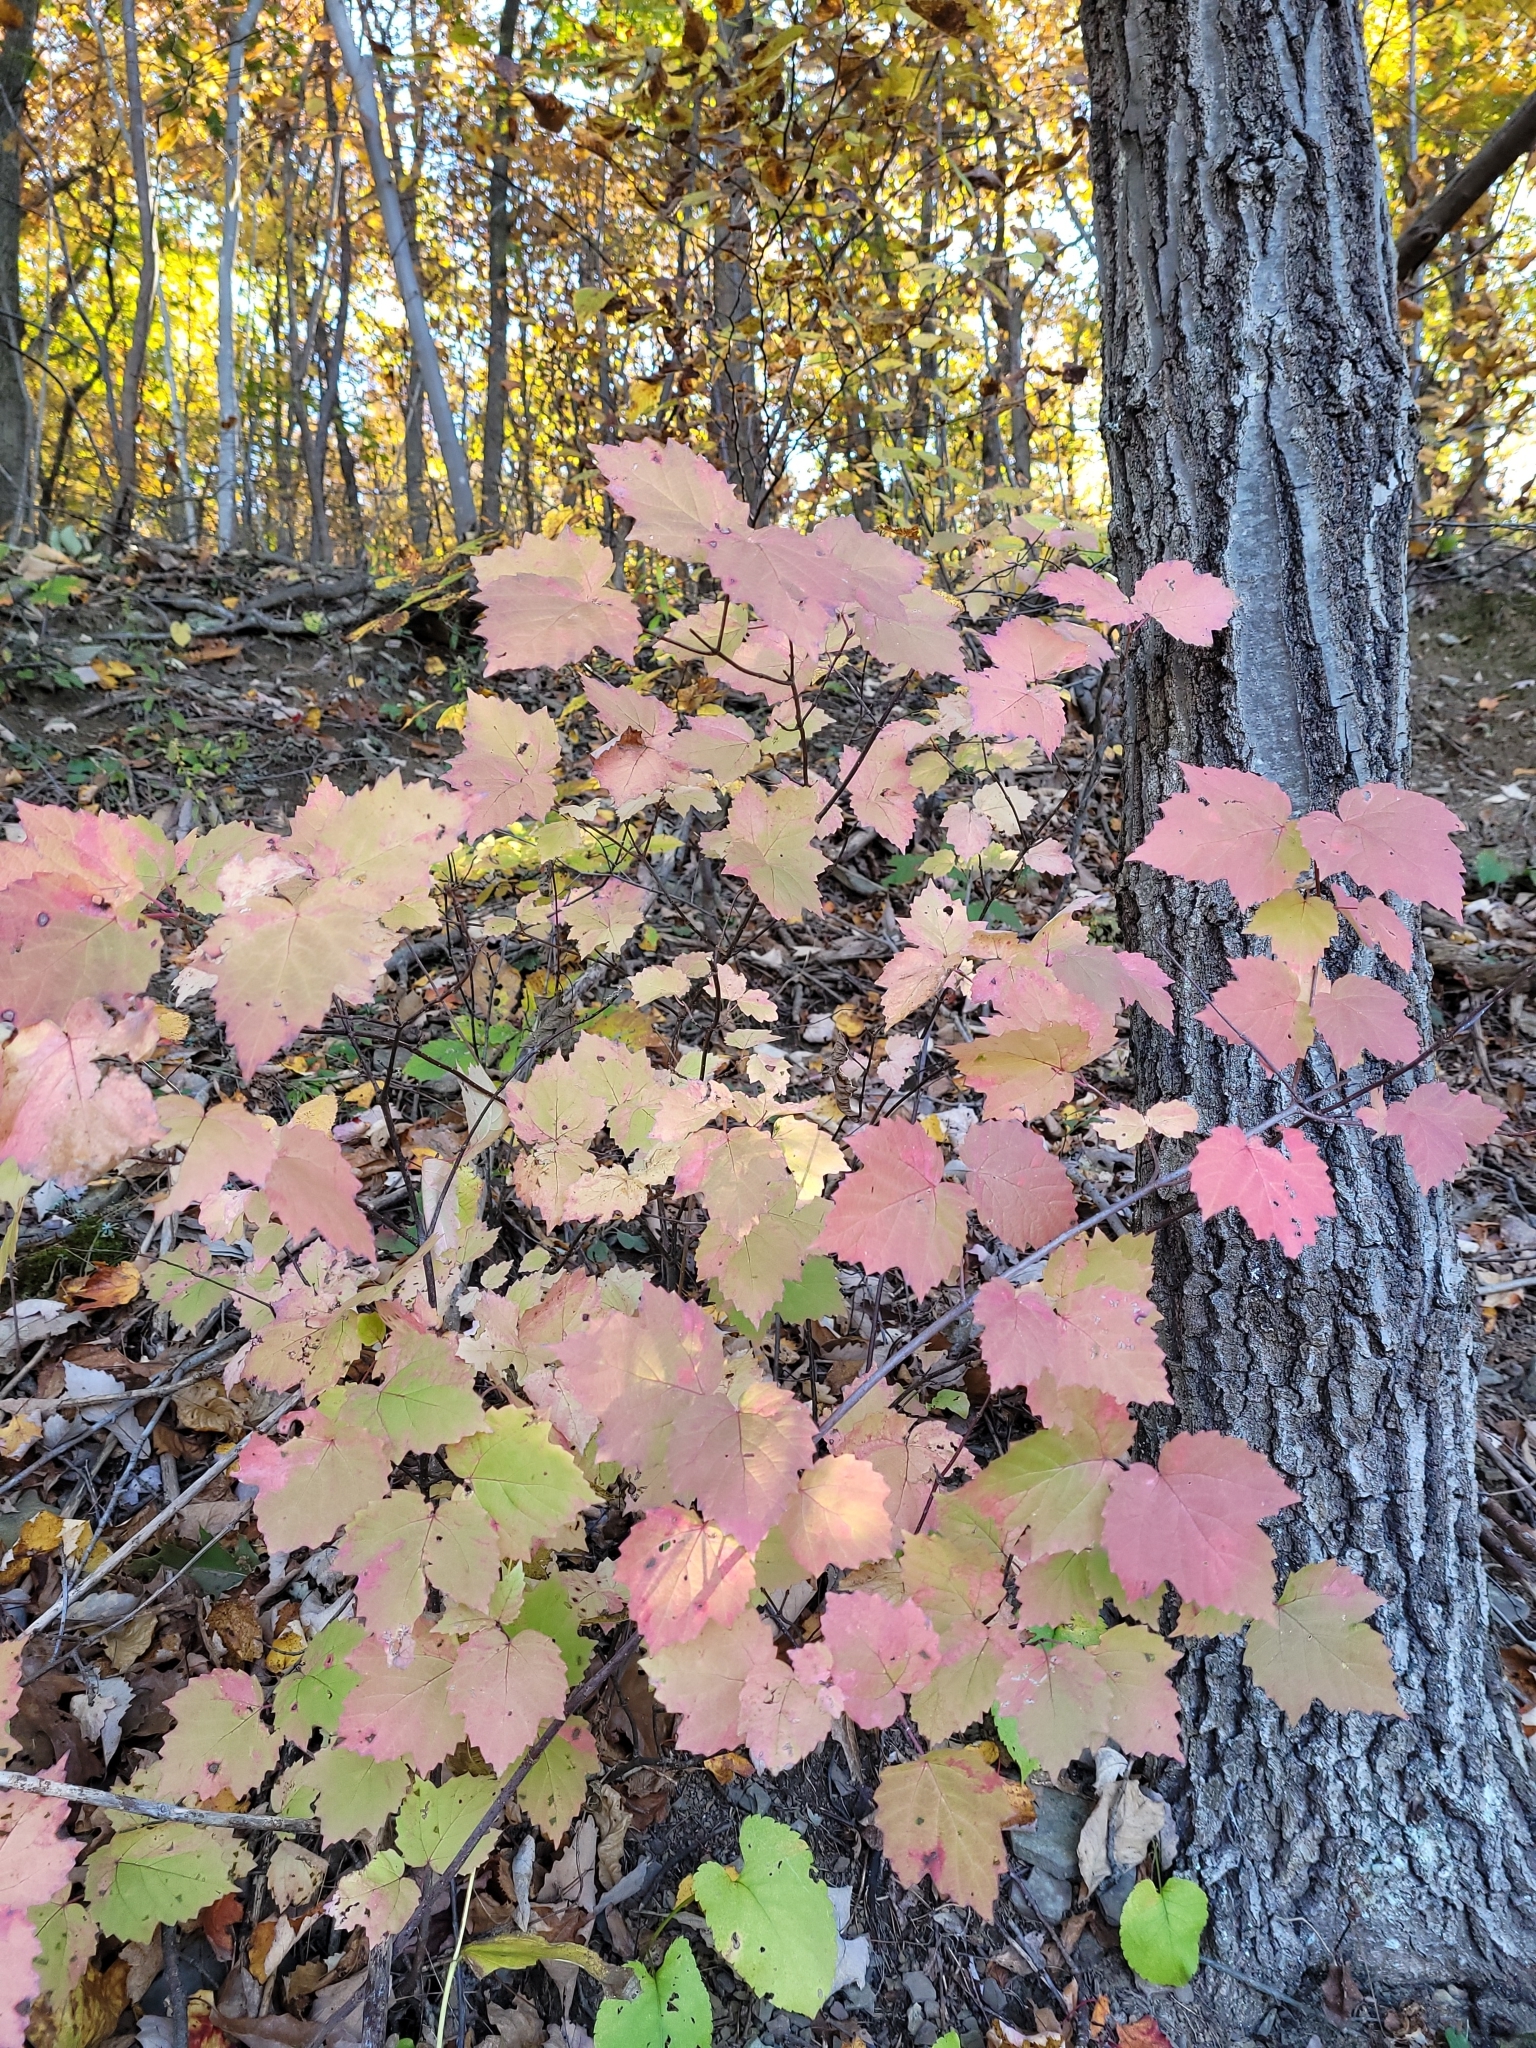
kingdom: Plantae
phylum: Tracheophyta
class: Magnoliopsida
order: Dipsacales
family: Viburnaceae
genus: Viburnum
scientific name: Viburnum acerifolium
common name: Dockmackie
